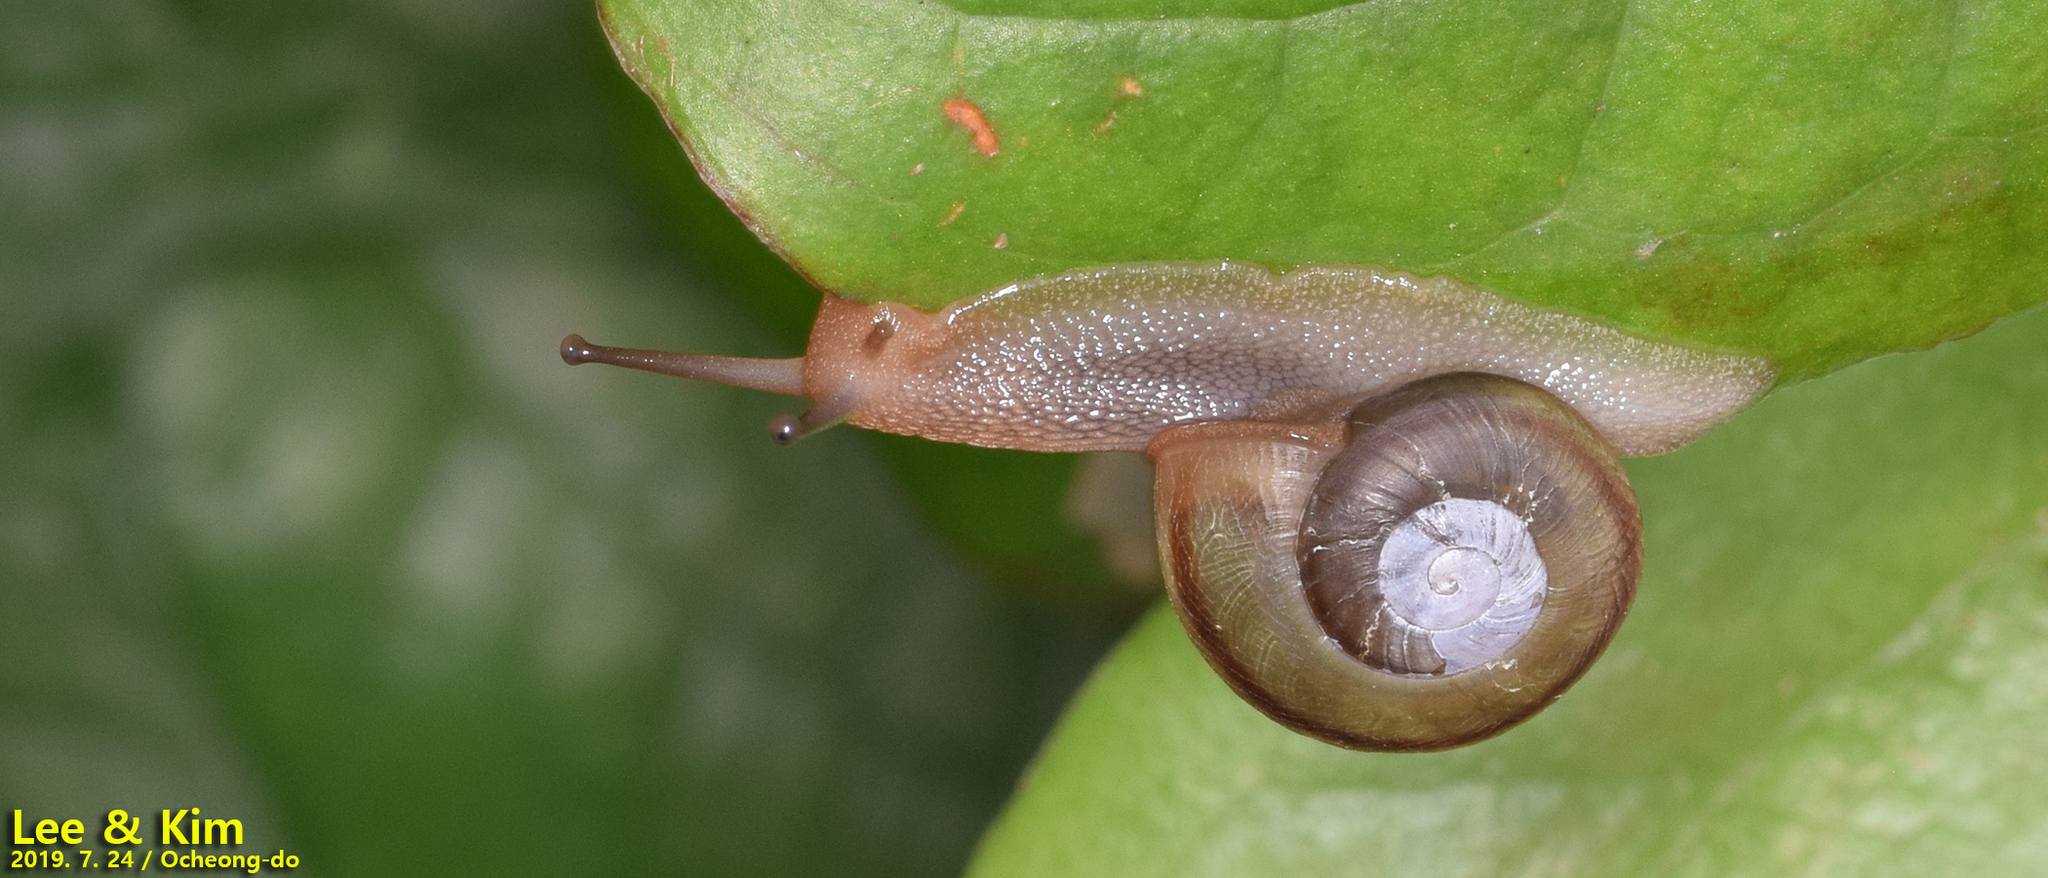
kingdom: Animalia
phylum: Mollusca
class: Gastropoda
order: Stylommatophora
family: Camaenidae
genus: Nesiohelix
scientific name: Nesiohelix samarangae
